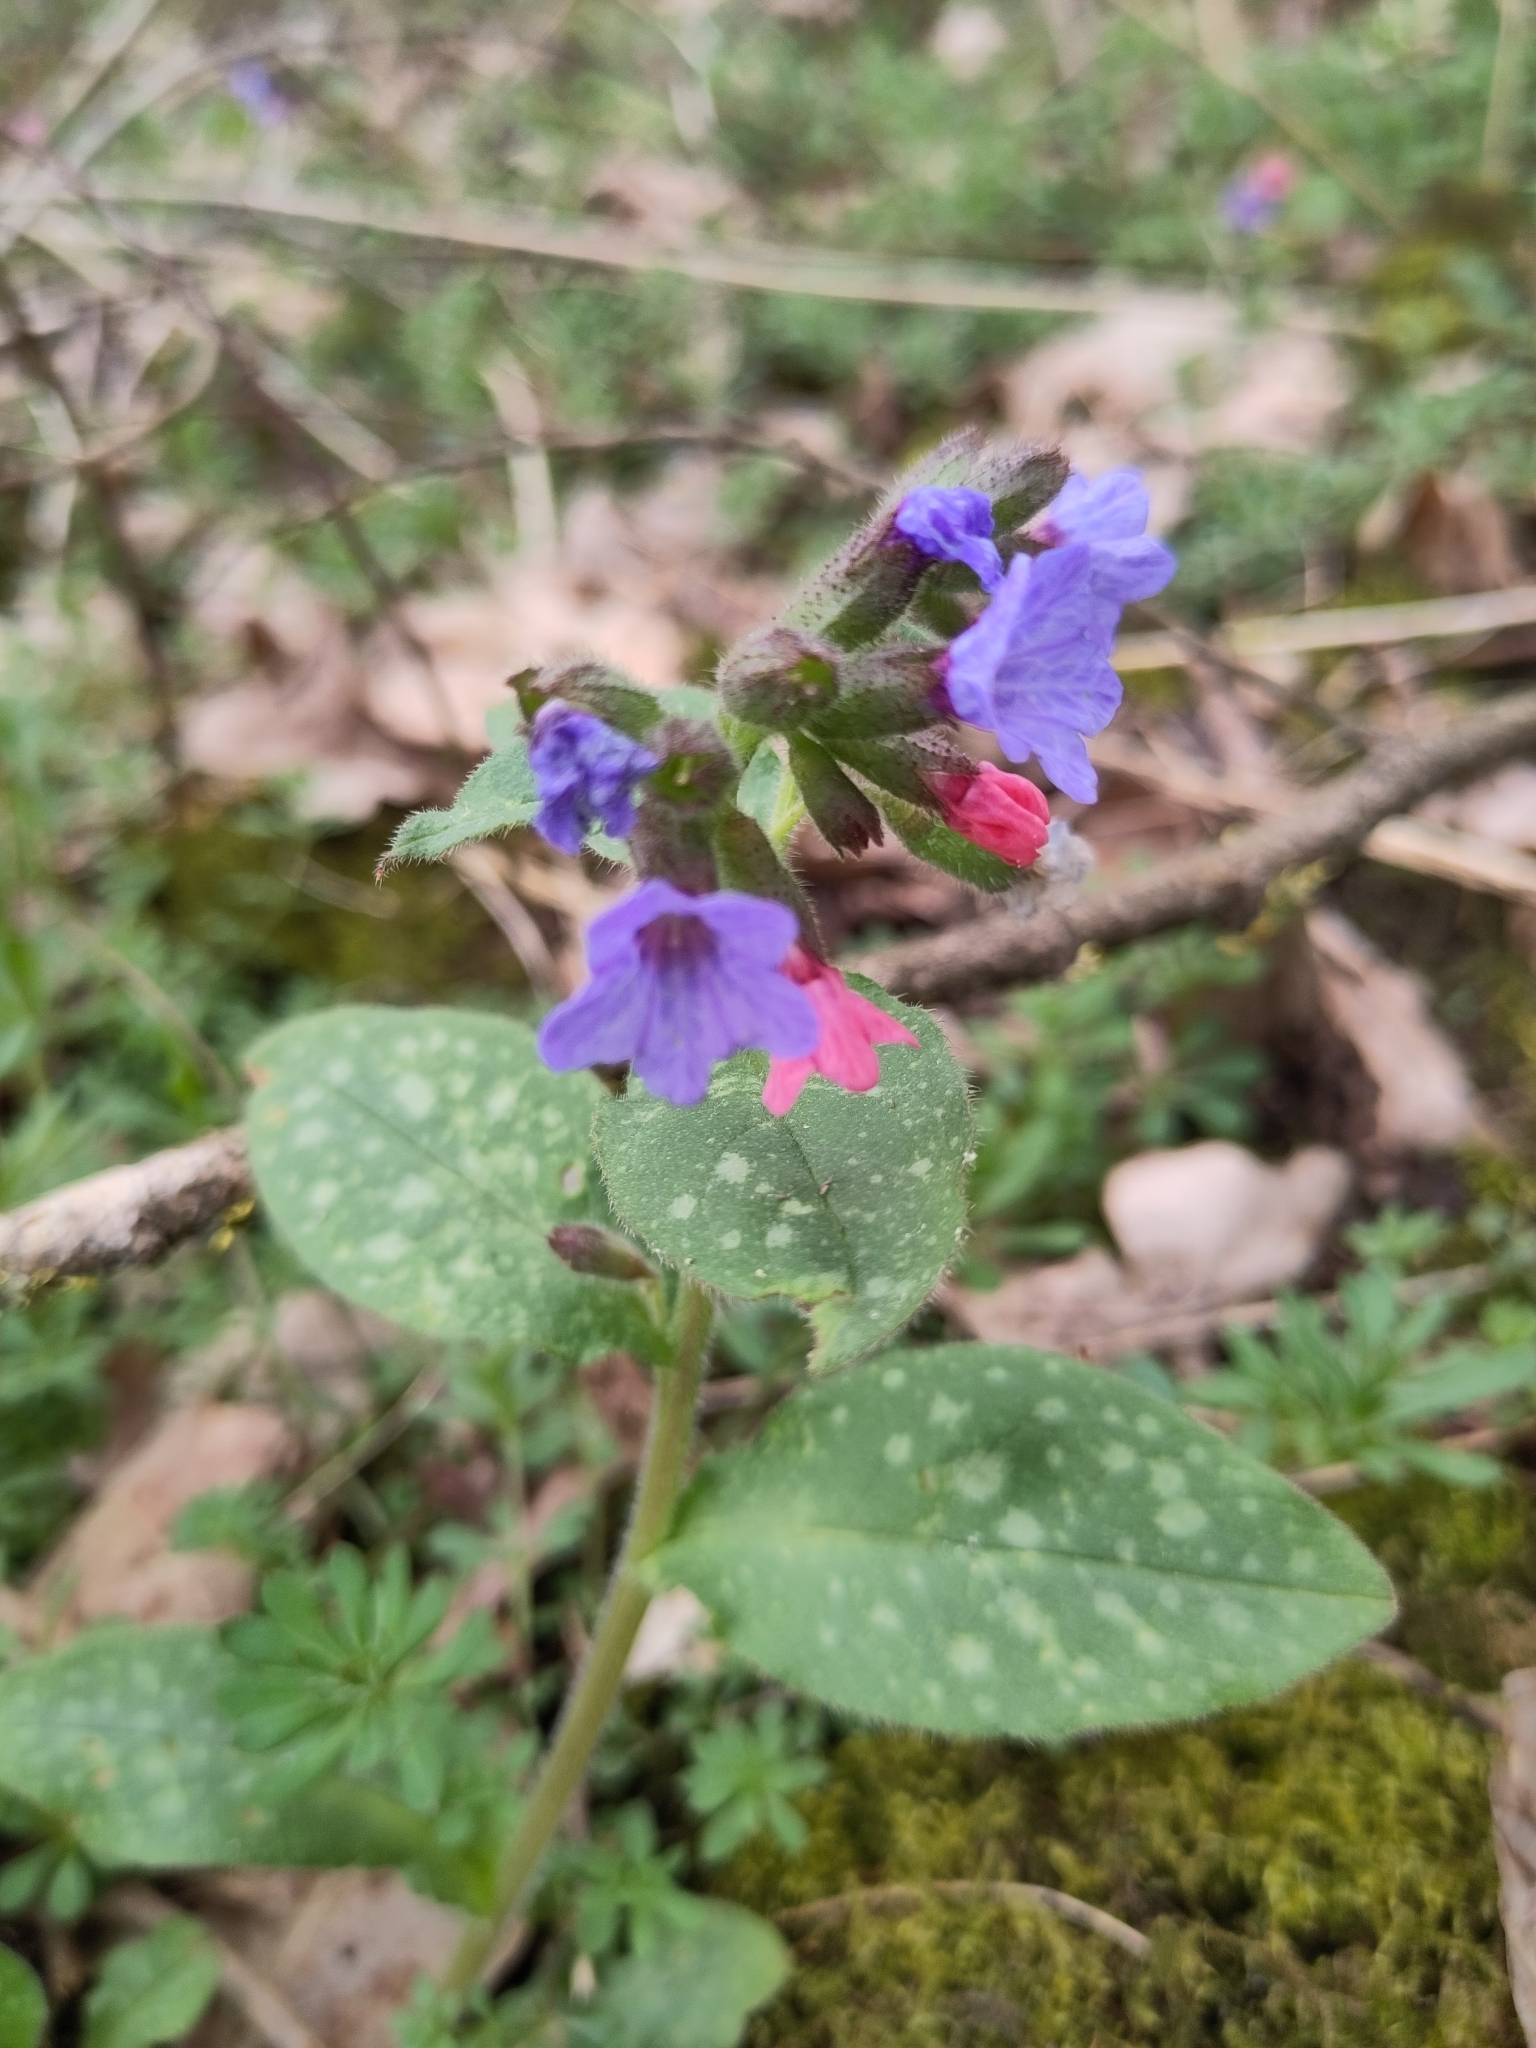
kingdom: Plantae
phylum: Tracheophyta
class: Magnoliopsida
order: Boraginales
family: Boraginaceae
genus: Pulmonaria
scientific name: Pulmonaria officinalis
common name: Lungwort
